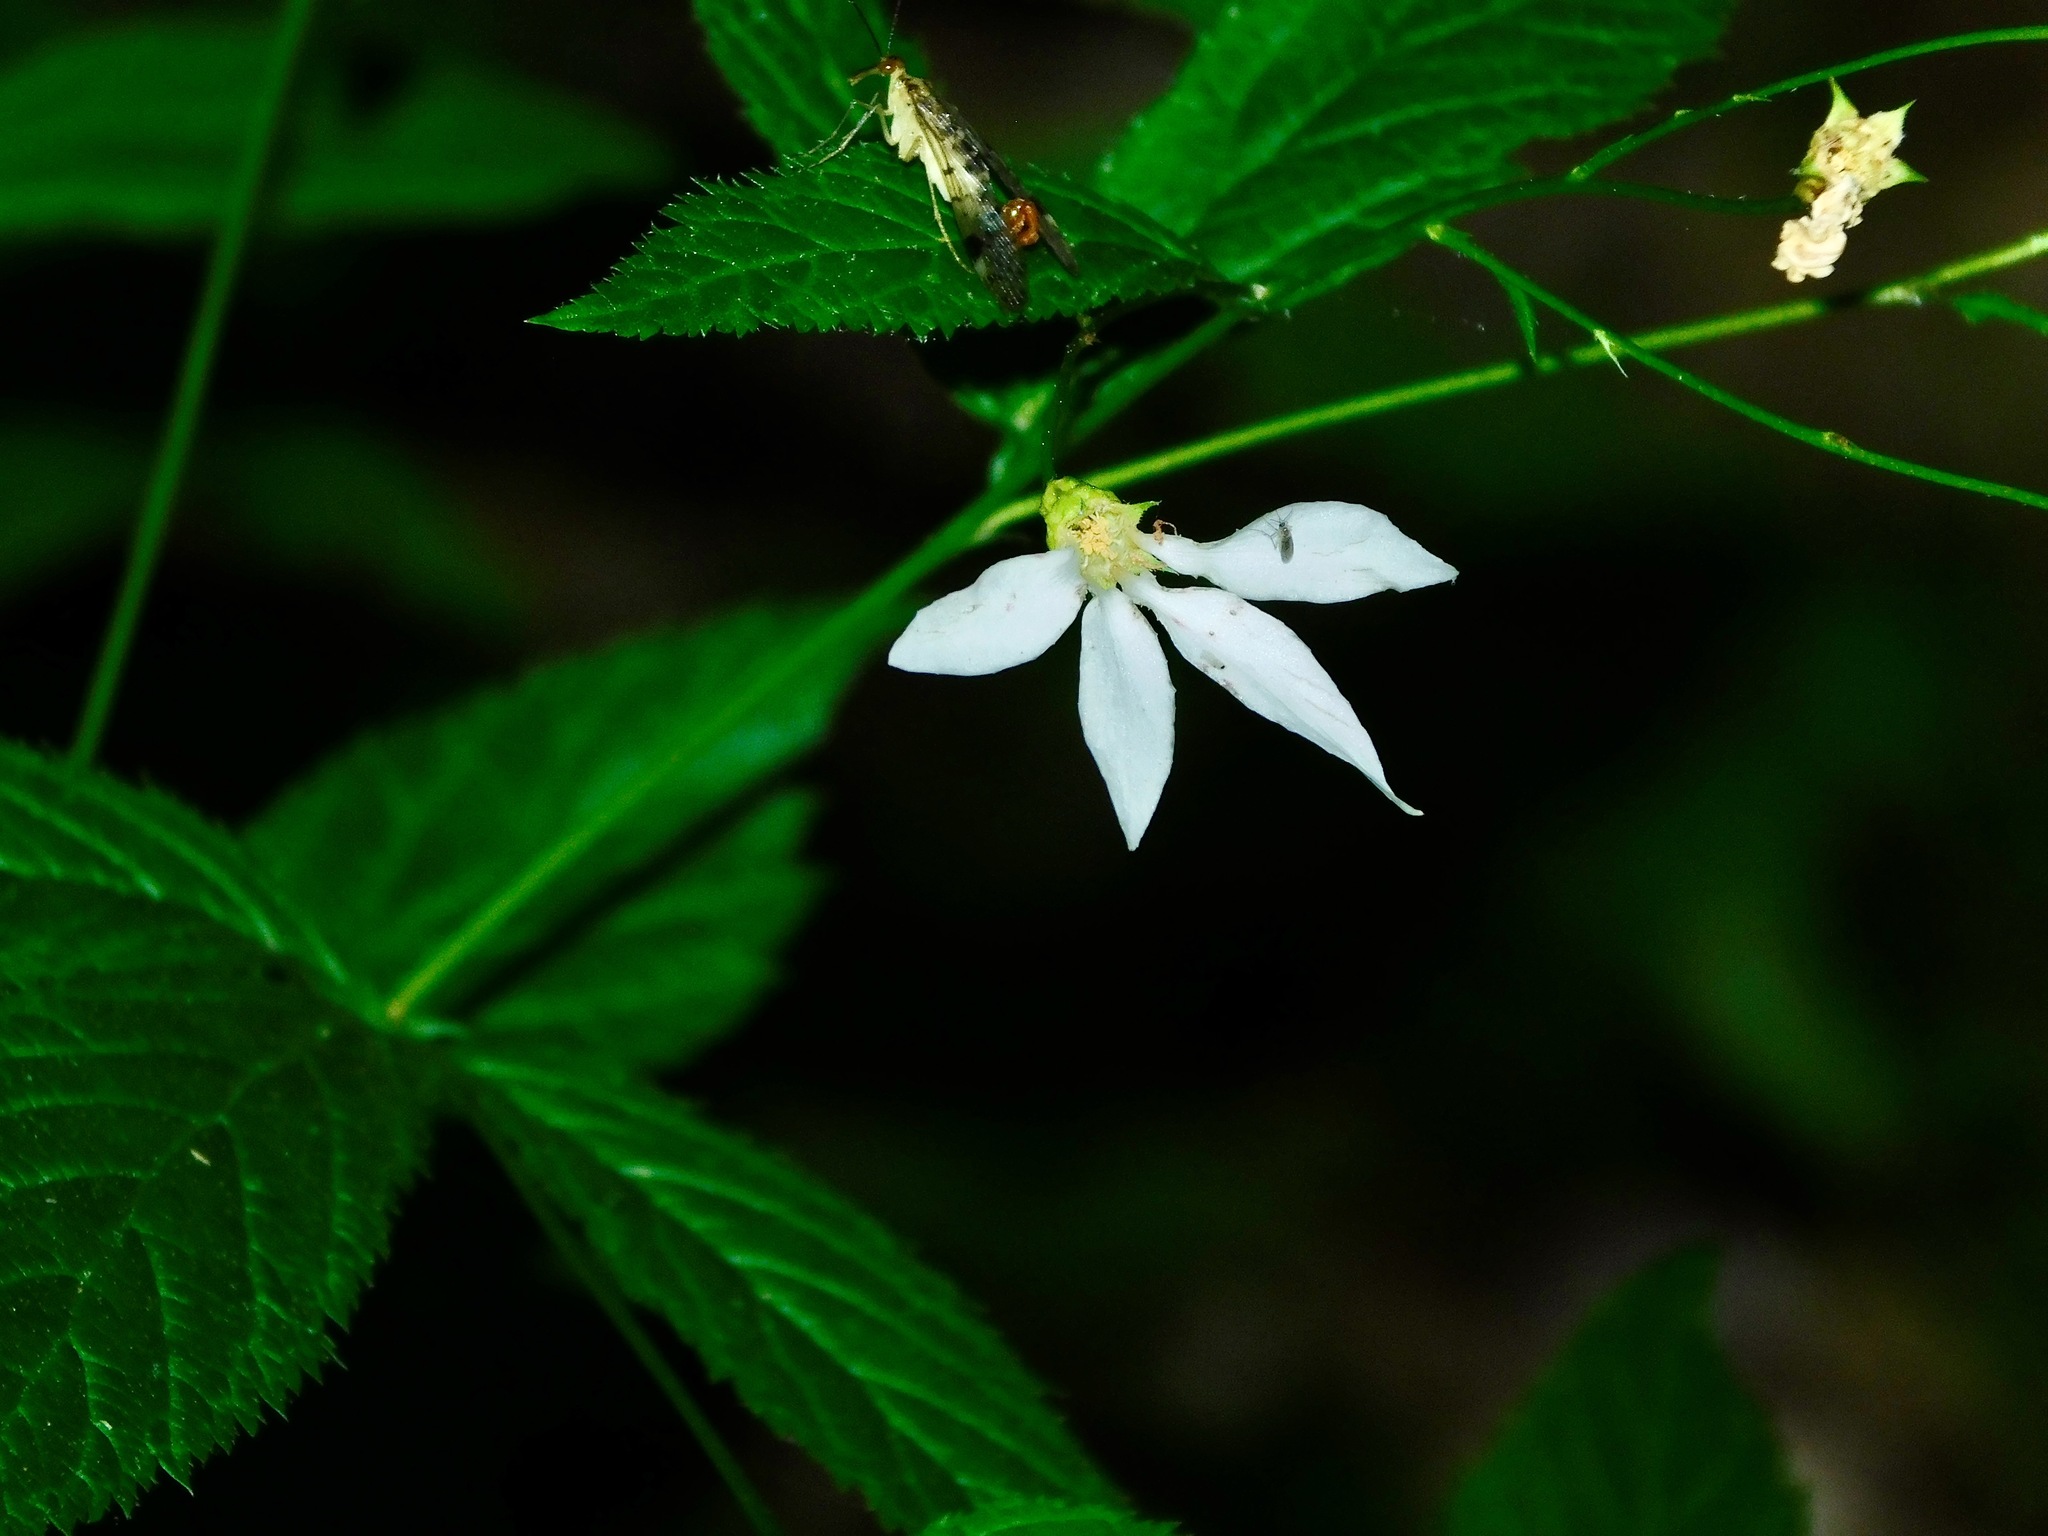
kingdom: Plantae
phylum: Tracheophyta
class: Magnoliopsida
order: Rosales
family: Rosaceae
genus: Gillenia
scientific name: Gillenia trifoliata
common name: Bowman's-root
